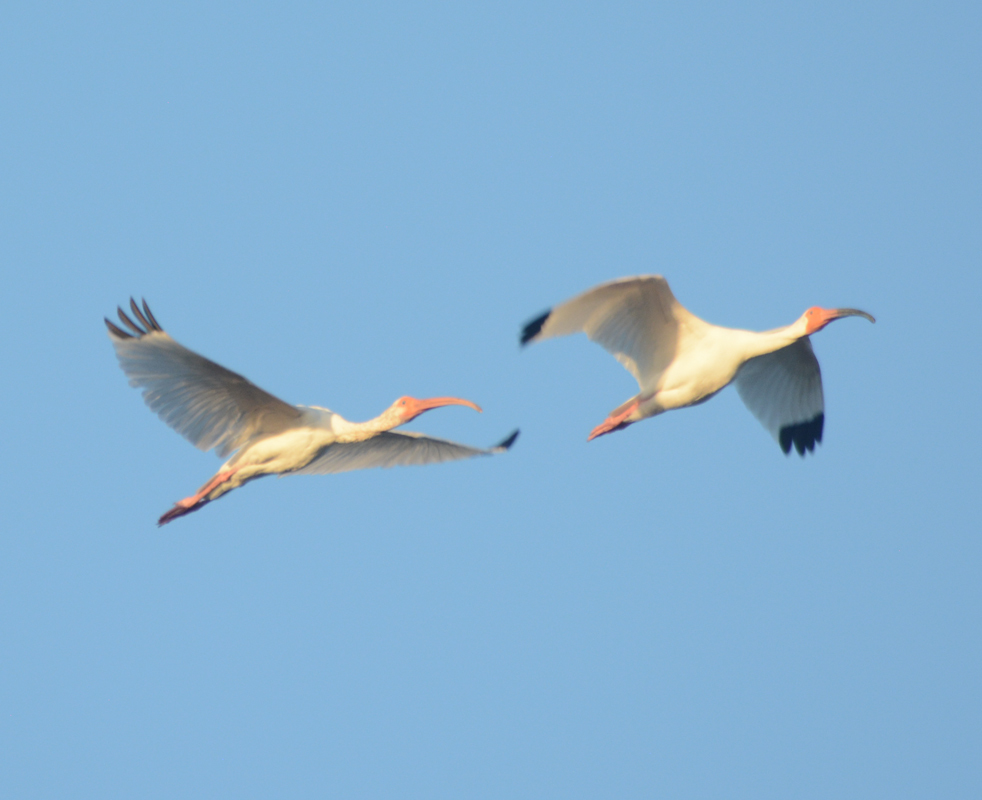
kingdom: Animalia
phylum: Chordata
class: Aves
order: Pelecaniformes
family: Threskiornithidae
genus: Eudocimus
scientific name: Eudocimus albus
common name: White ibis
